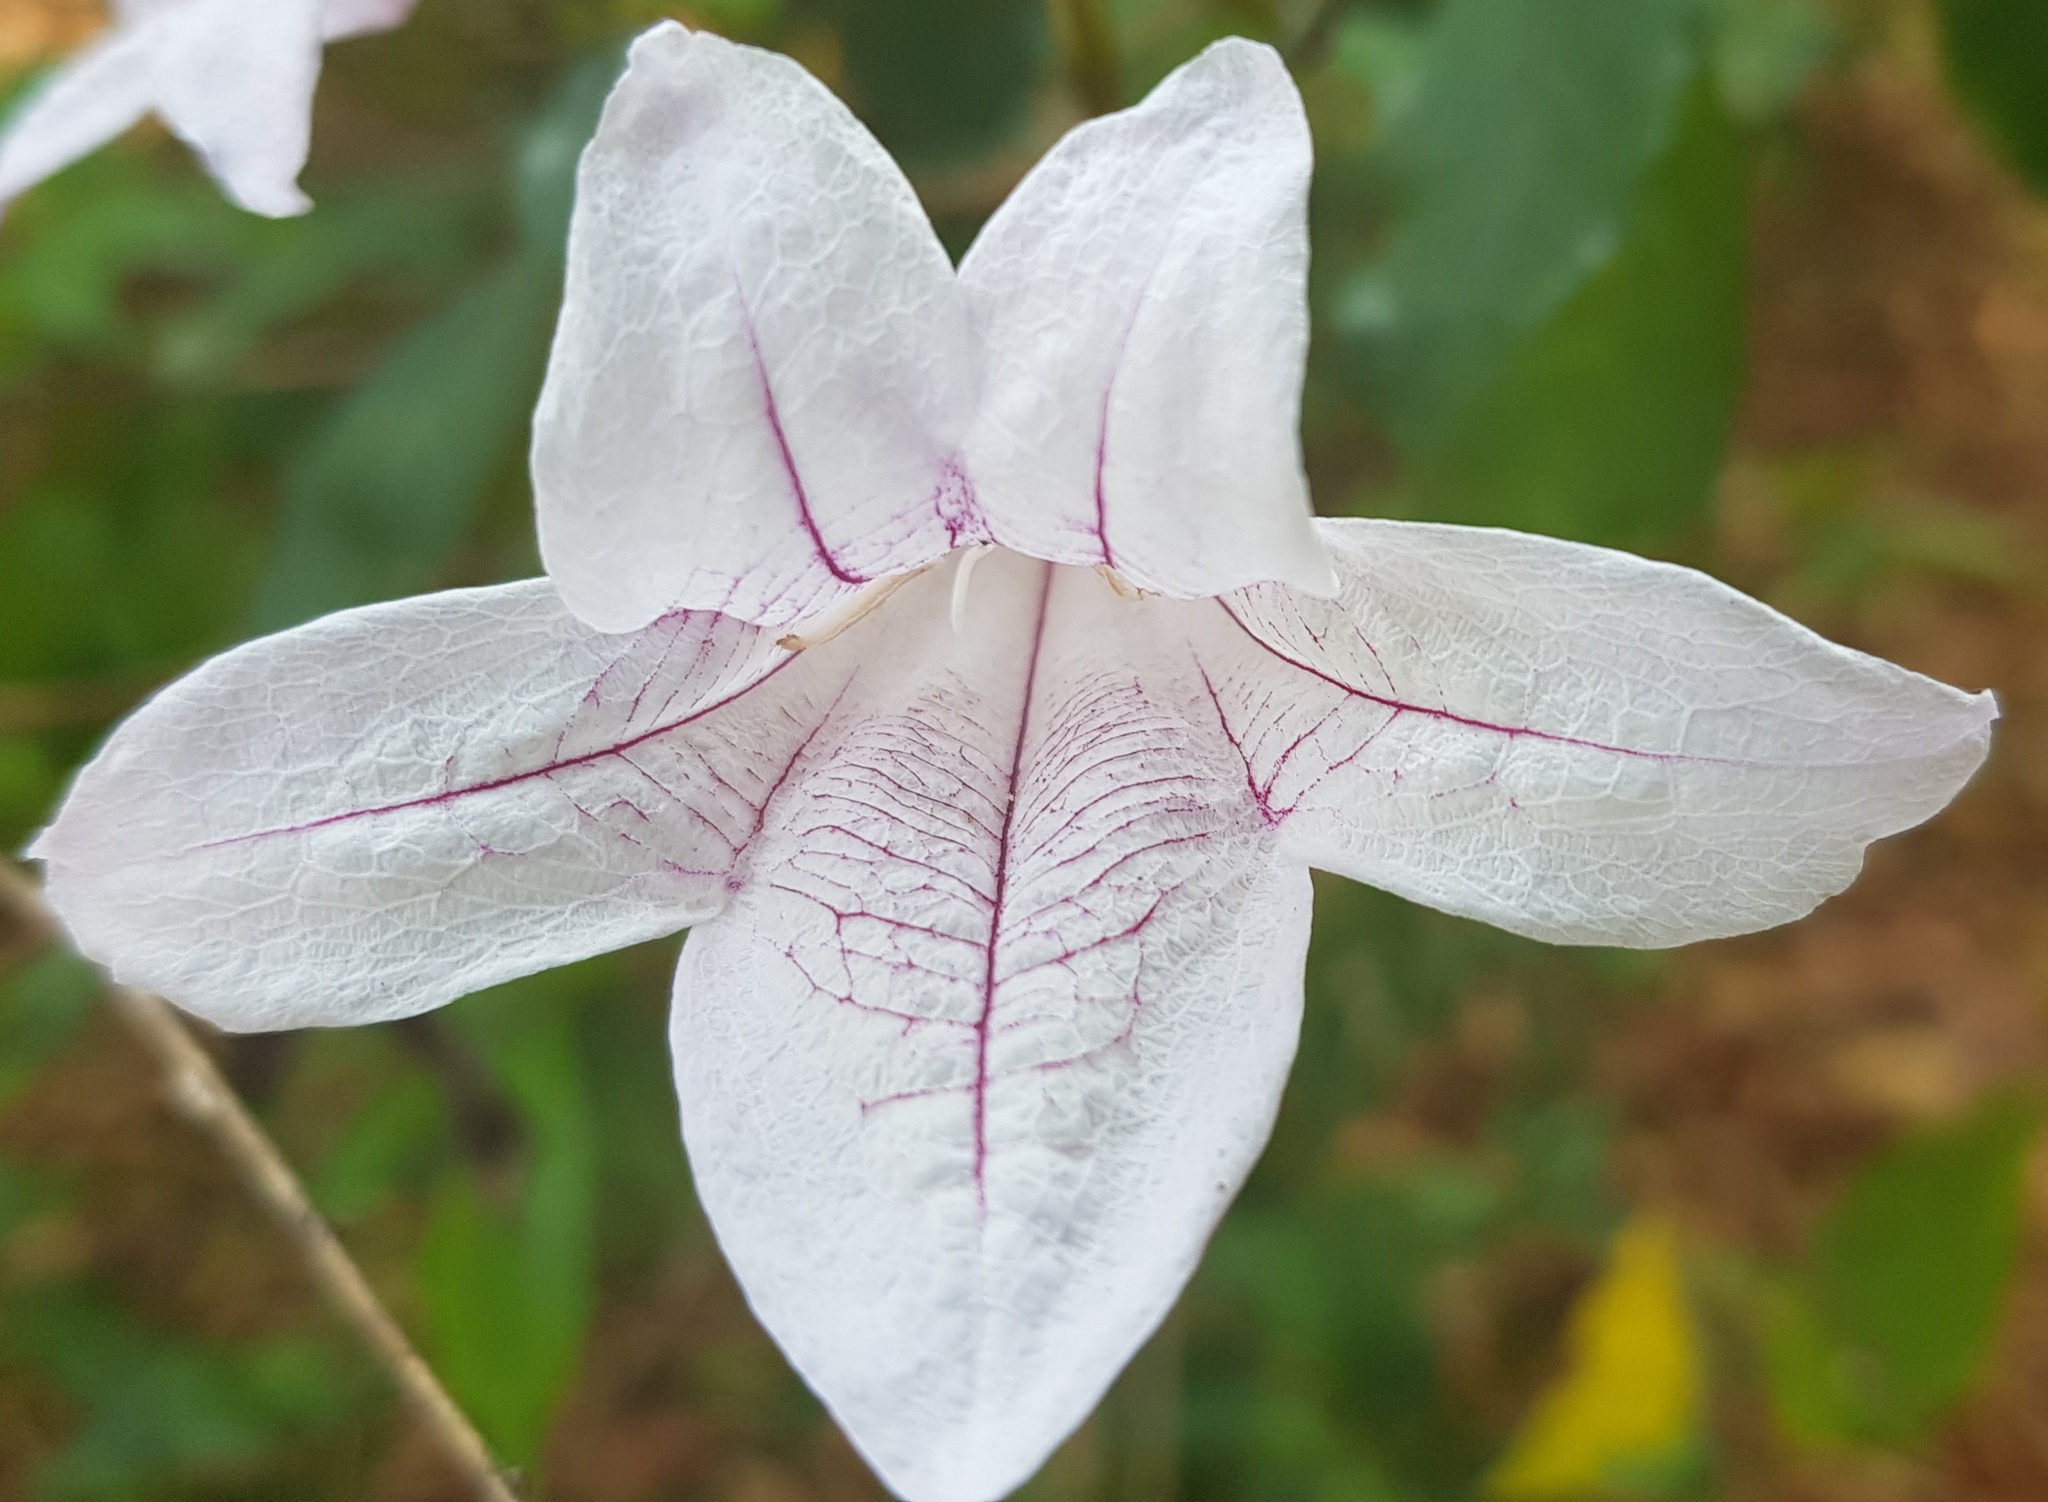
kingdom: Plantae
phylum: Tracheophyta
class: Magnoliopsida
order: Lamiales
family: Acanthaceae
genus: Mackaya
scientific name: Mackaya bella
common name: Forest bell-bush
